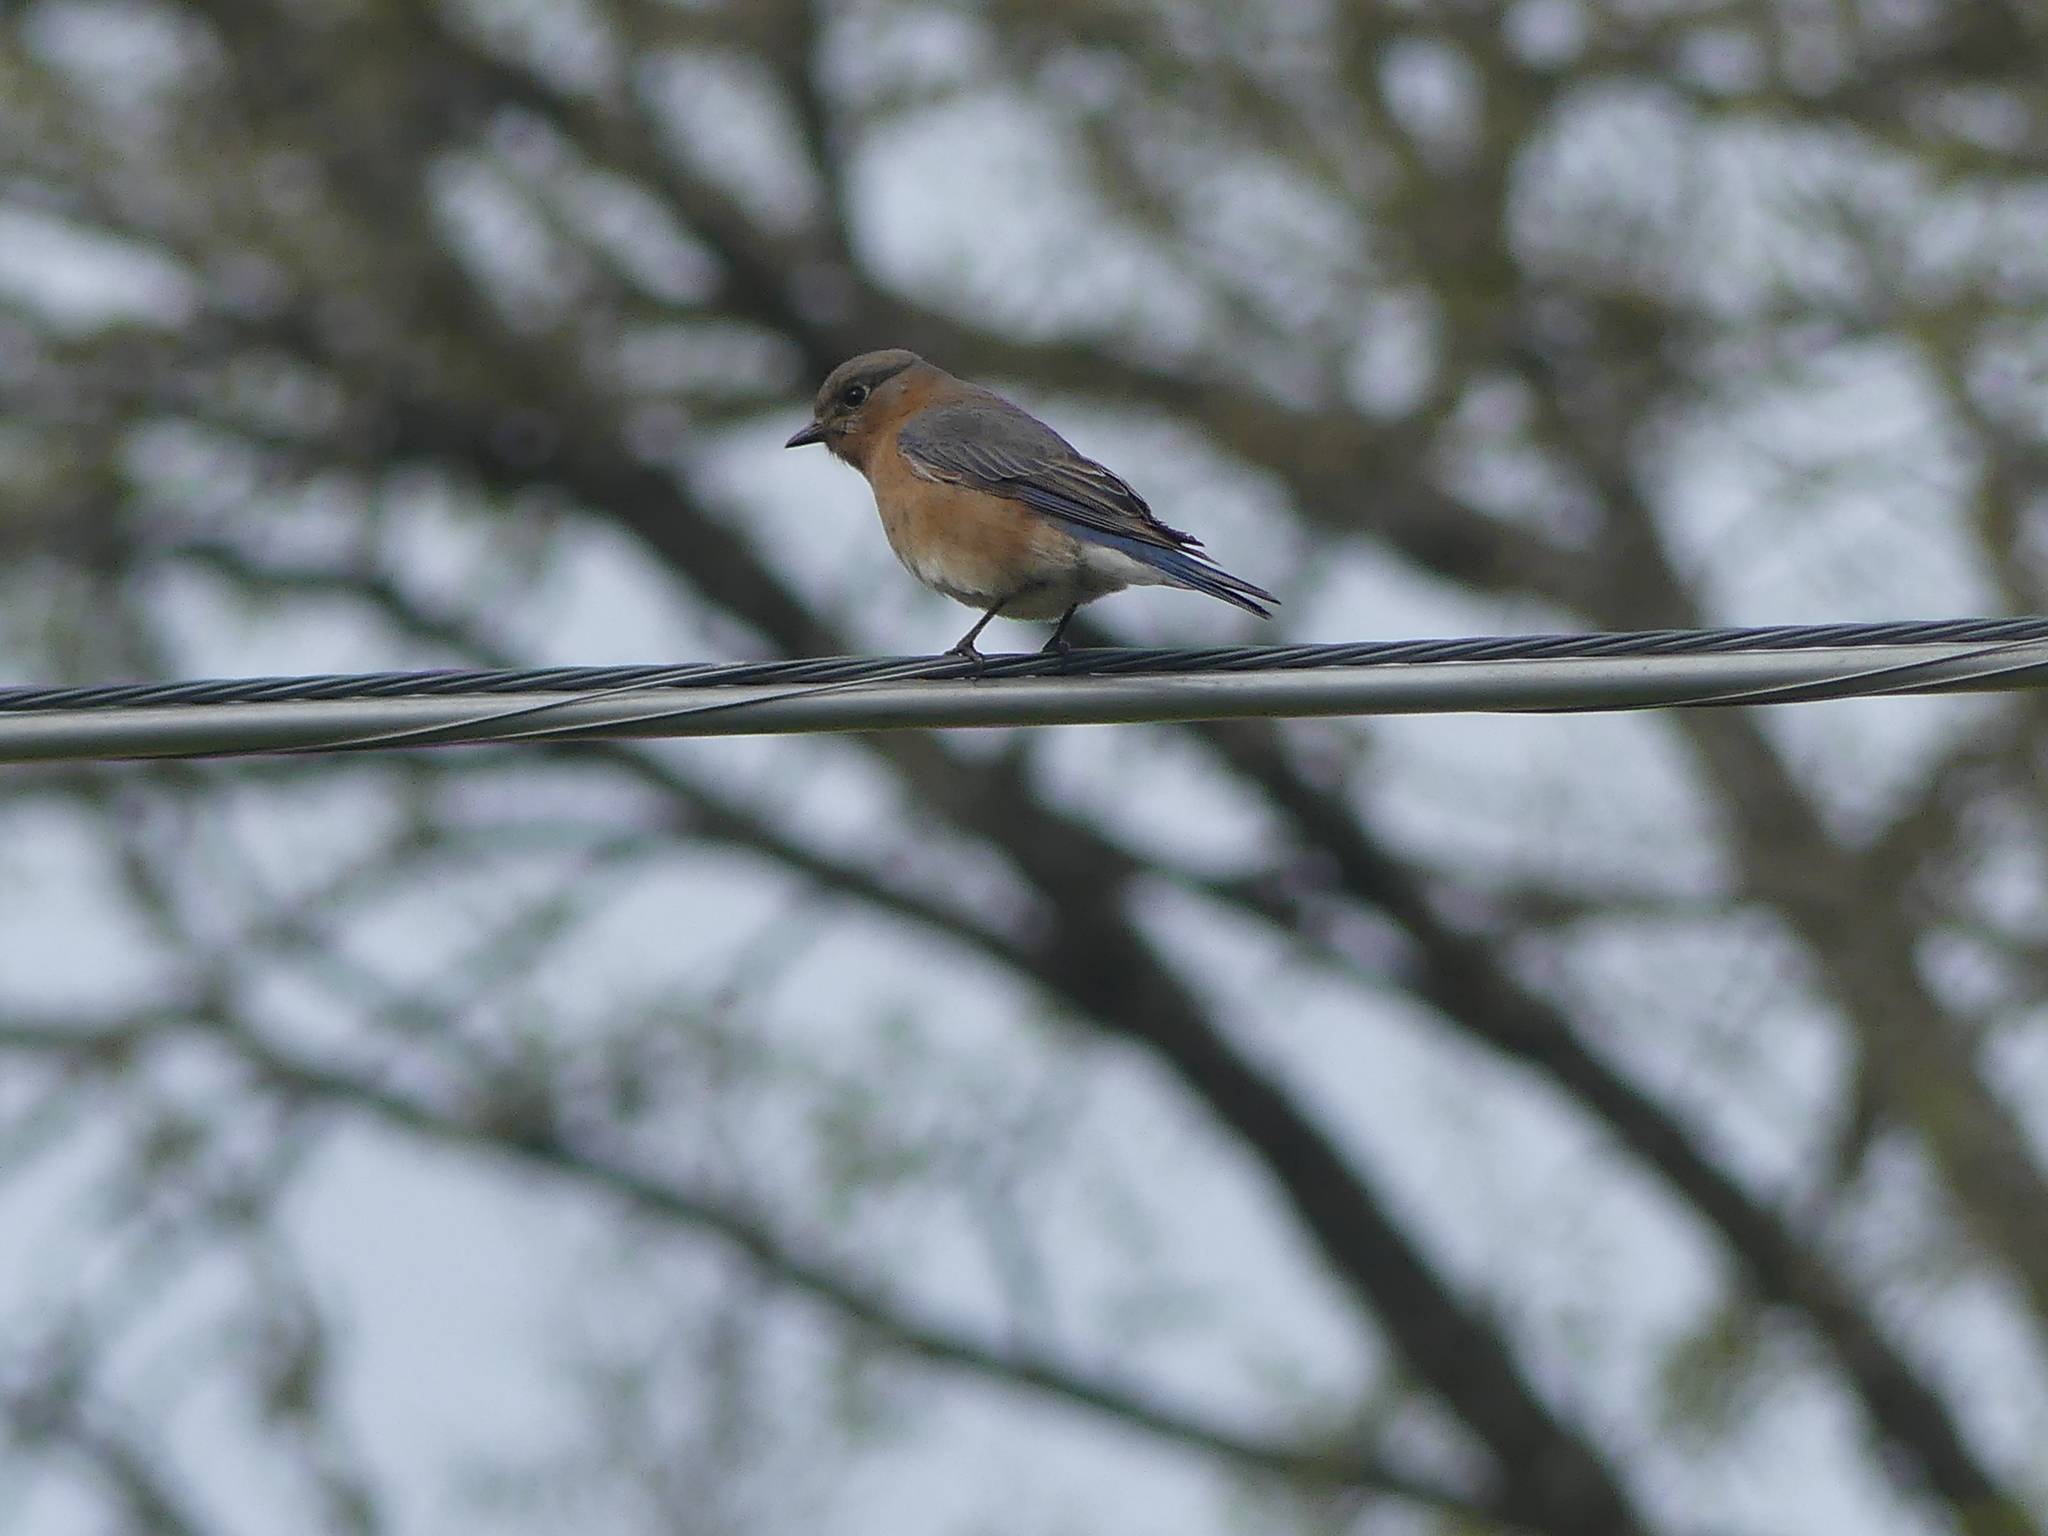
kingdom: Animalia
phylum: Chordata
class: Aves
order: Passeriformes
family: Turdidae
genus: Sialia
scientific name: Sialia sialis
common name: Eastern bluebird
